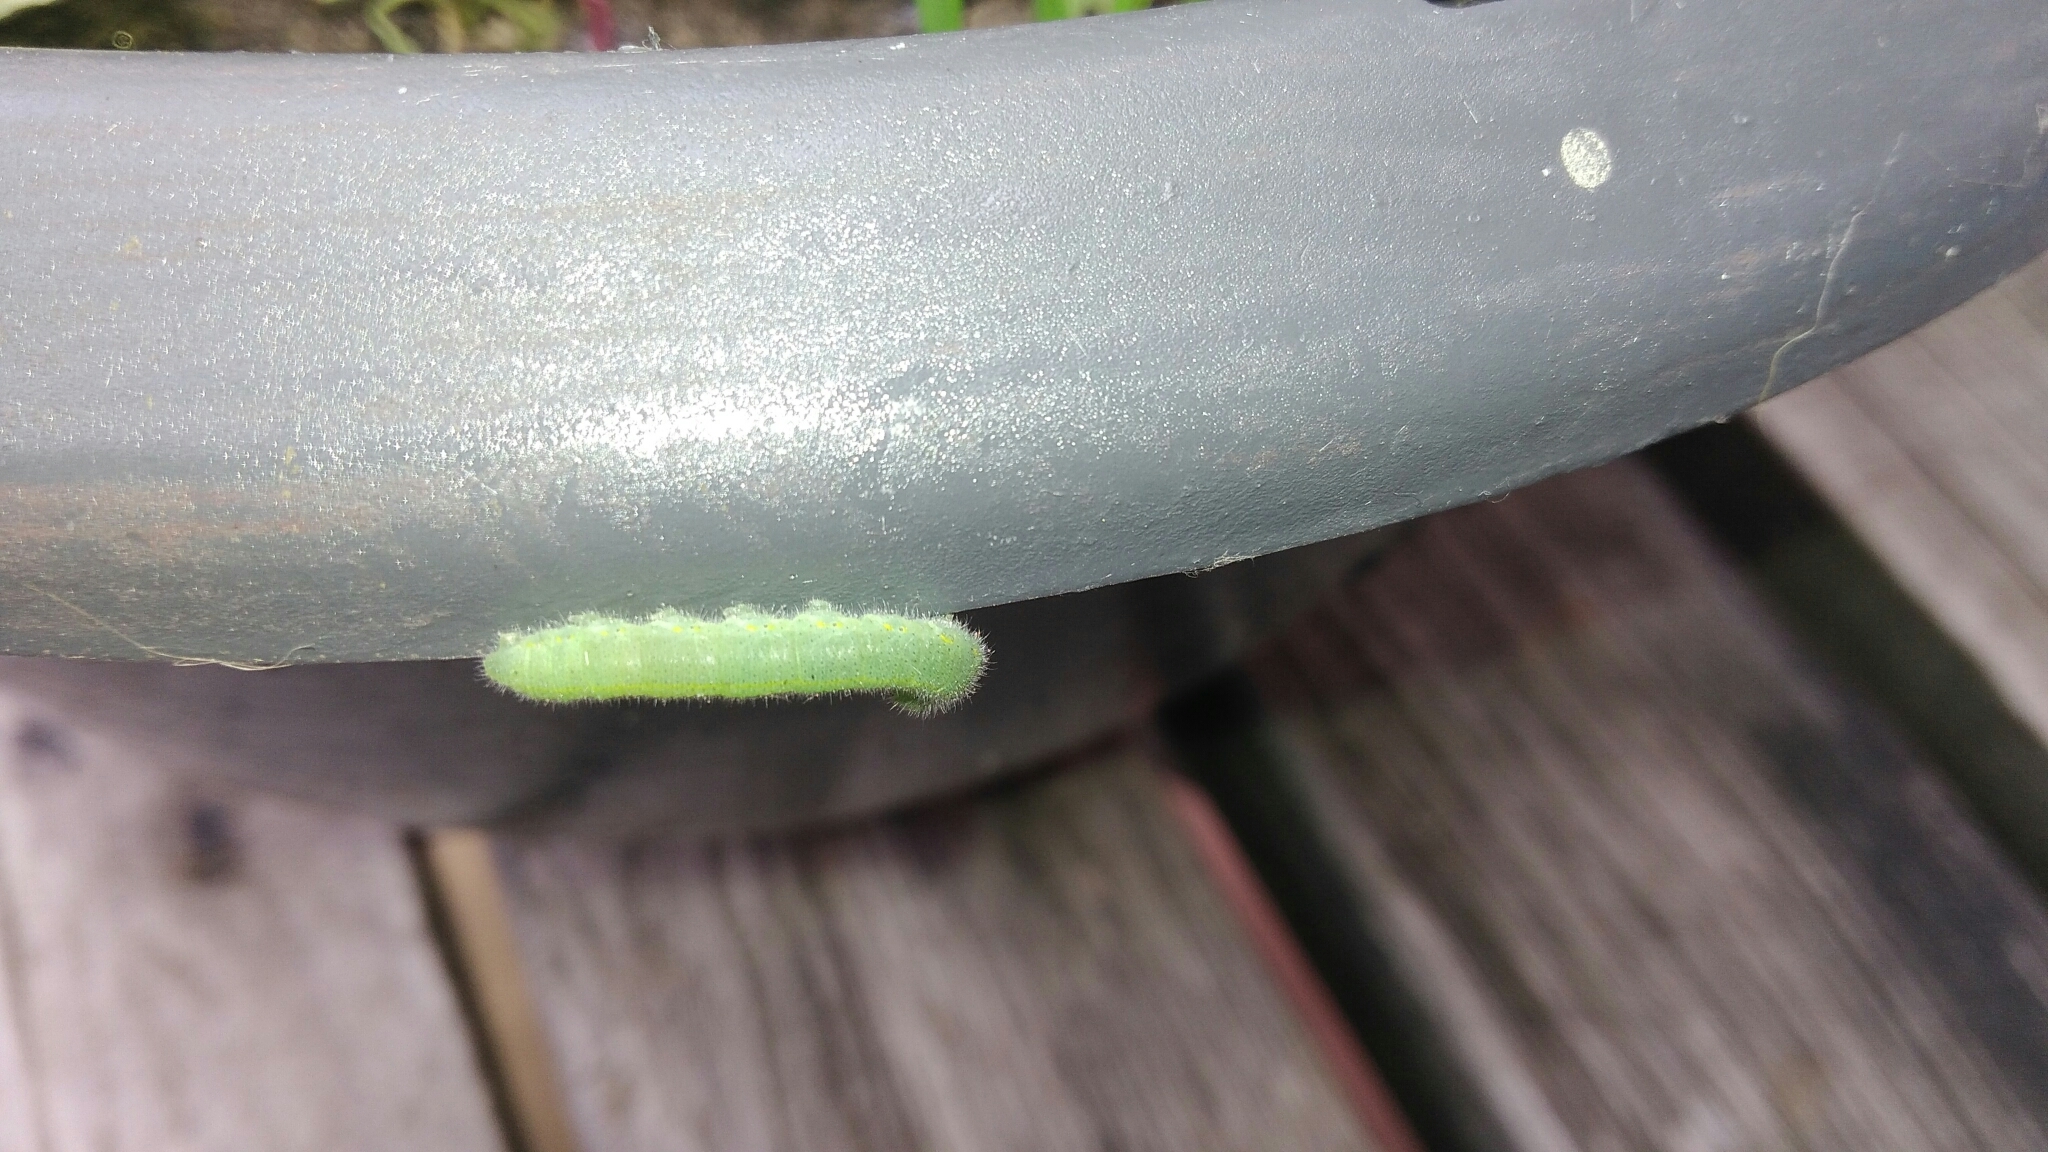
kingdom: Animalia
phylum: Arthropoda
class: Insecta
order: Lepidoptera
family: Pieridae
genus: Pieris
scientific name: Pieris rapae
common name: Small white
